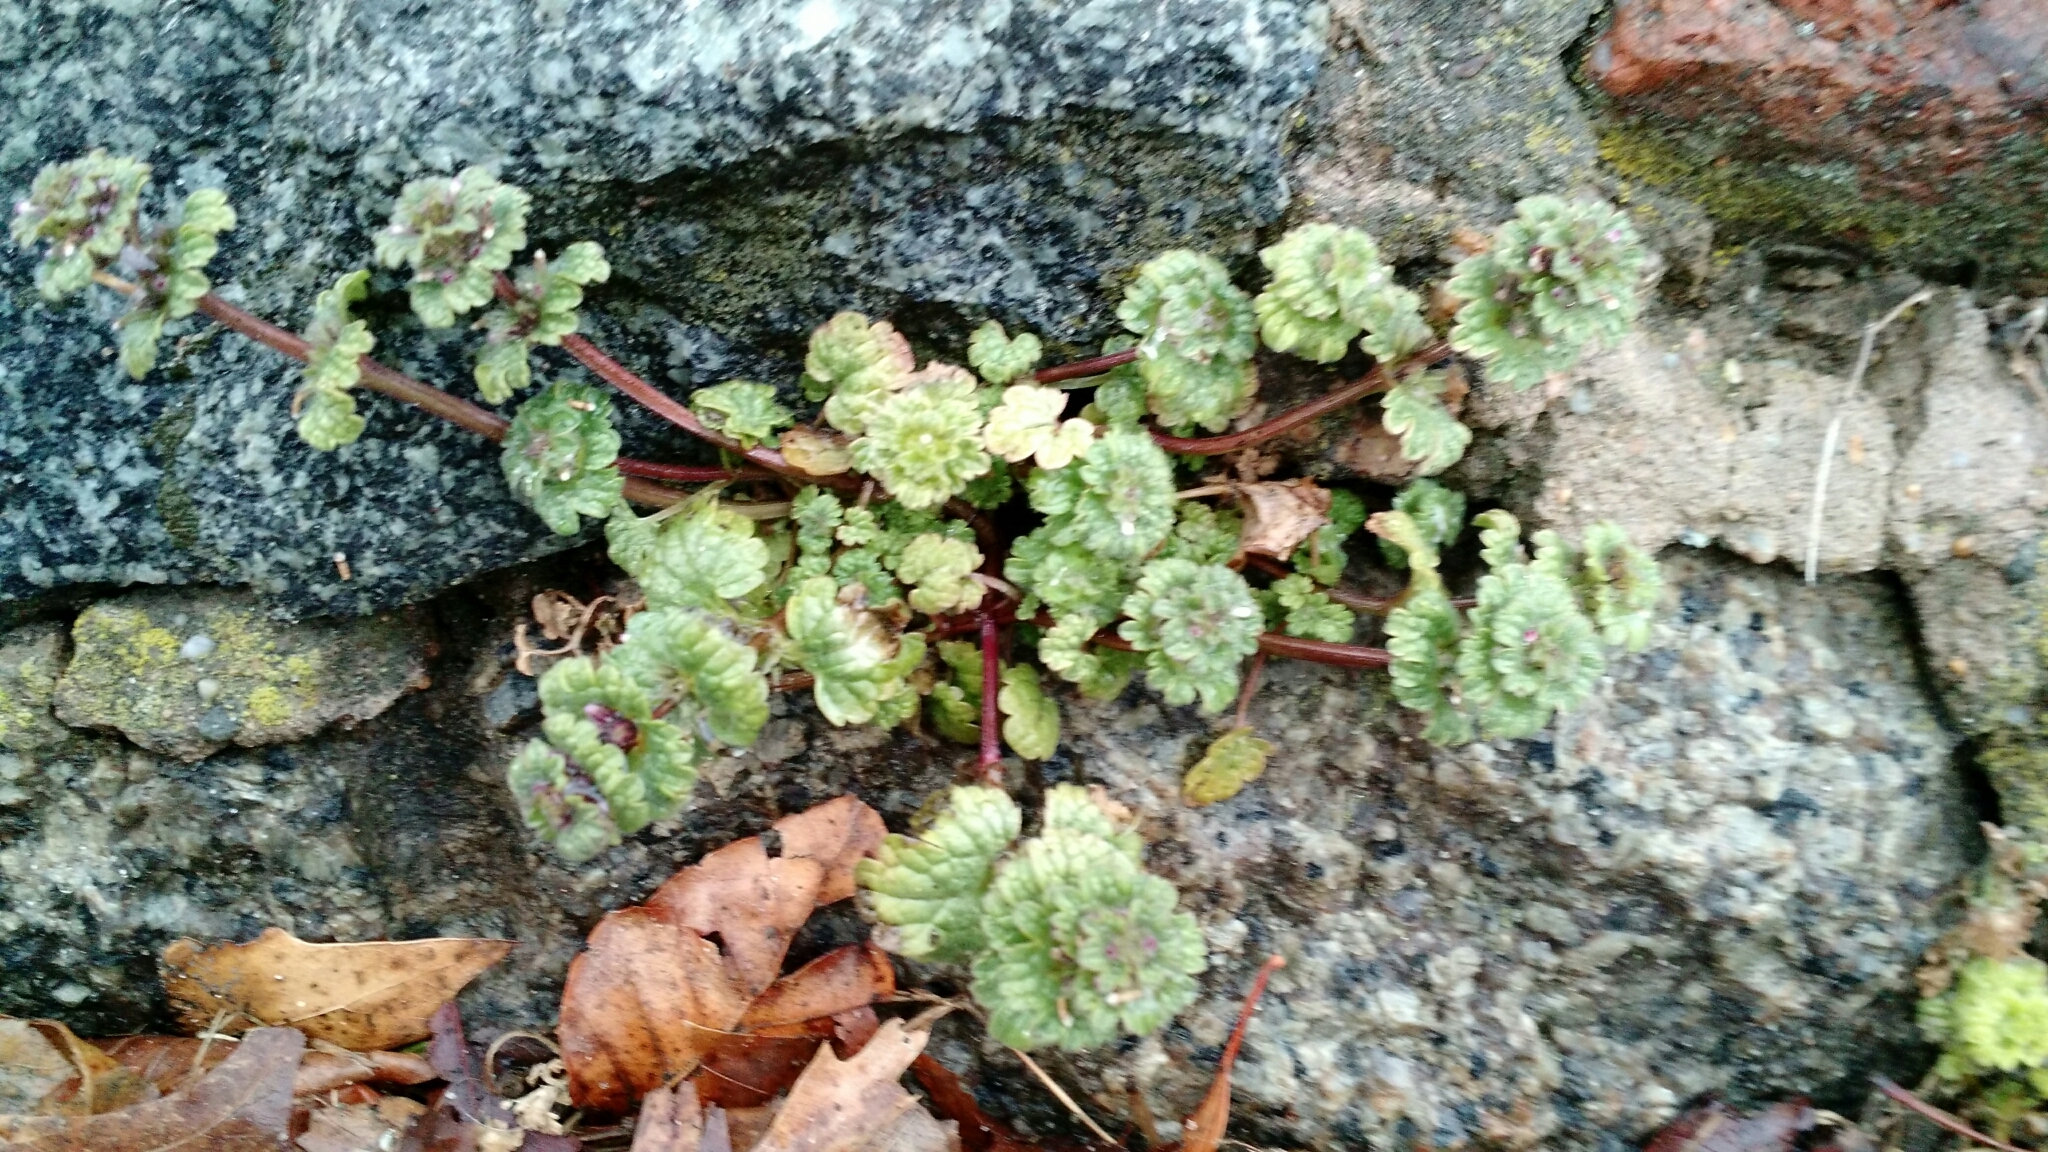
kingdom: Plantae
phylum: Tracheophyta
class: Magnoliopsida
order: Lamiales
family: Lamiaceae
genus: Lamium
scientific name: Lamium amplexicaule
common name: Henbit dead-nettle
